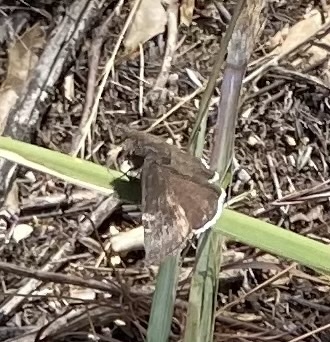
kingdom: Animalia
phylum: Arthropoda
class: Insecta
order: Lepidoptera
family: Hesperiidae
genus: Erynnis
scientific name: Erynnis funeralis
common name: Funereal duskywing
